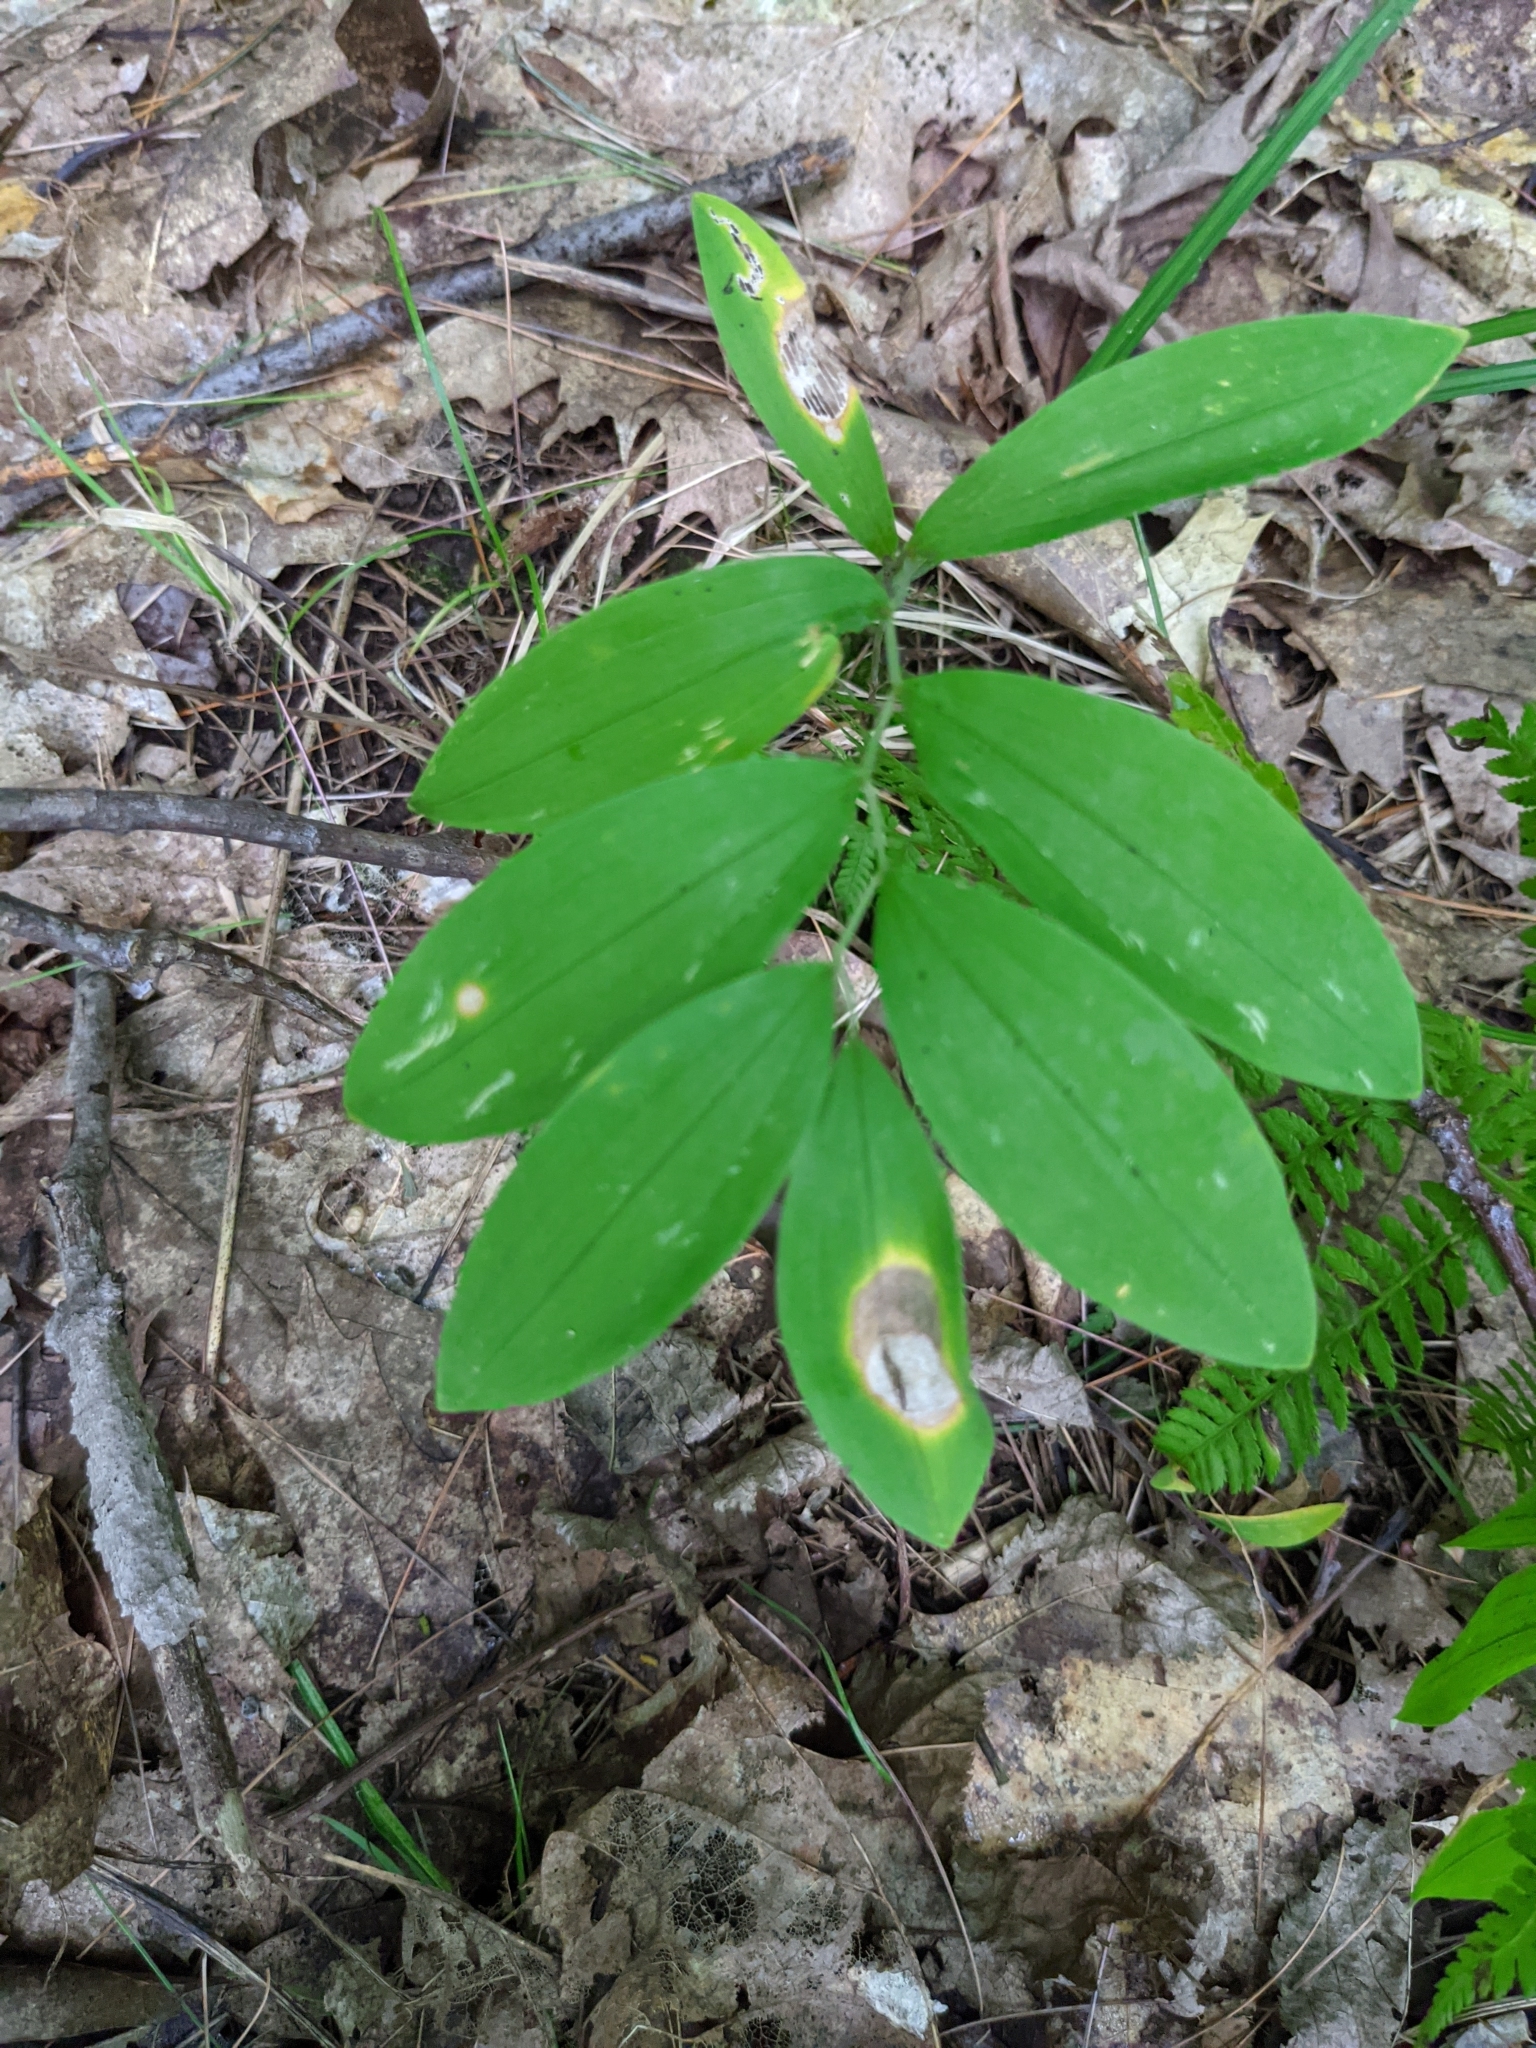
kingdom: Plantae
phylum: Tracheophyta
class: Liliopsida
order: Liliales
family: Colchicaceae
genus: Uvularia
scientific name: Uvularia sessilifolia
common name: Straw-lily
